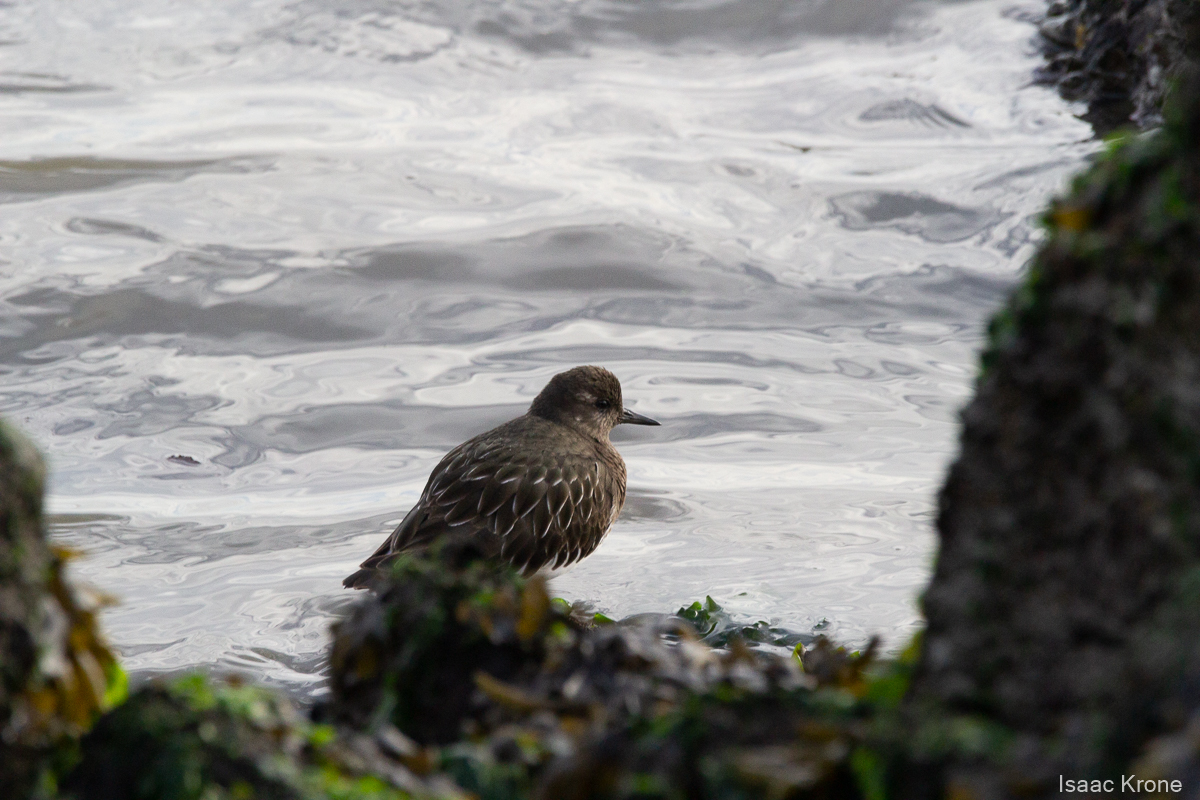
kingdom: Animalia
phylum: Chordata
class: Aves
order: Charadriiformes
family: Scolopacidae
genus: Arenaria
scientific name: Arenaria melanocephala
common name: Black turnstone
